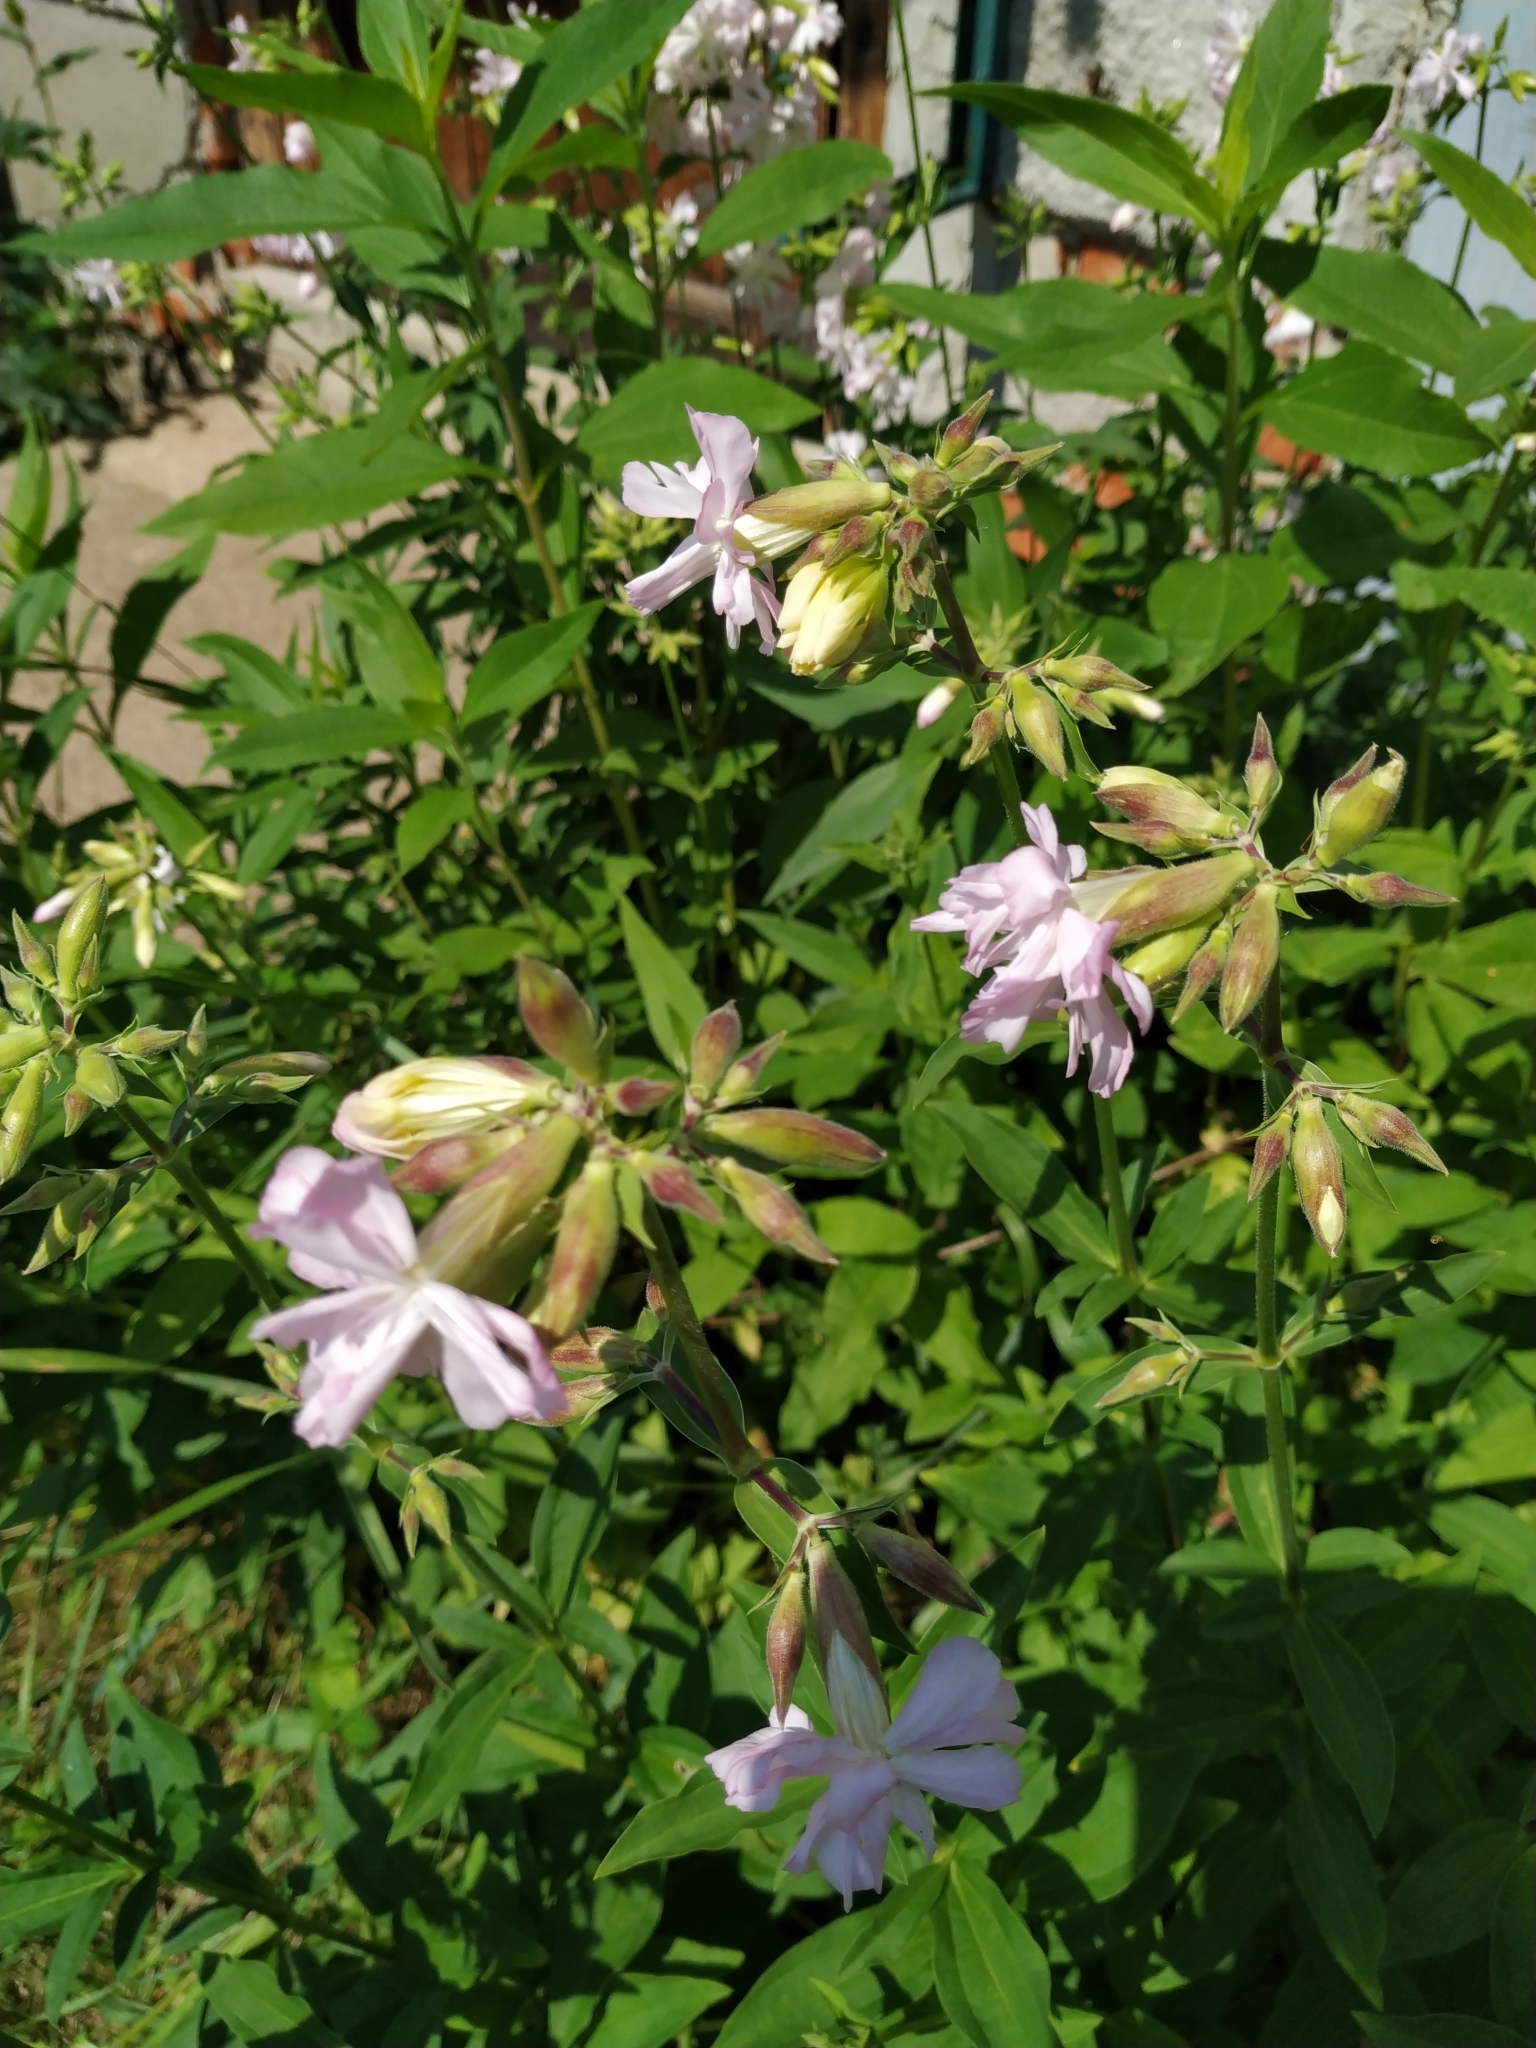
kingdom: Plantae
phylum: Tracheophyta
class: Magnoliopsida
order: Caryophyllales
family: Caryophyllaceae
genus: Saponaria
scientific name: Saponaria officinalis
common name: Soapwort
